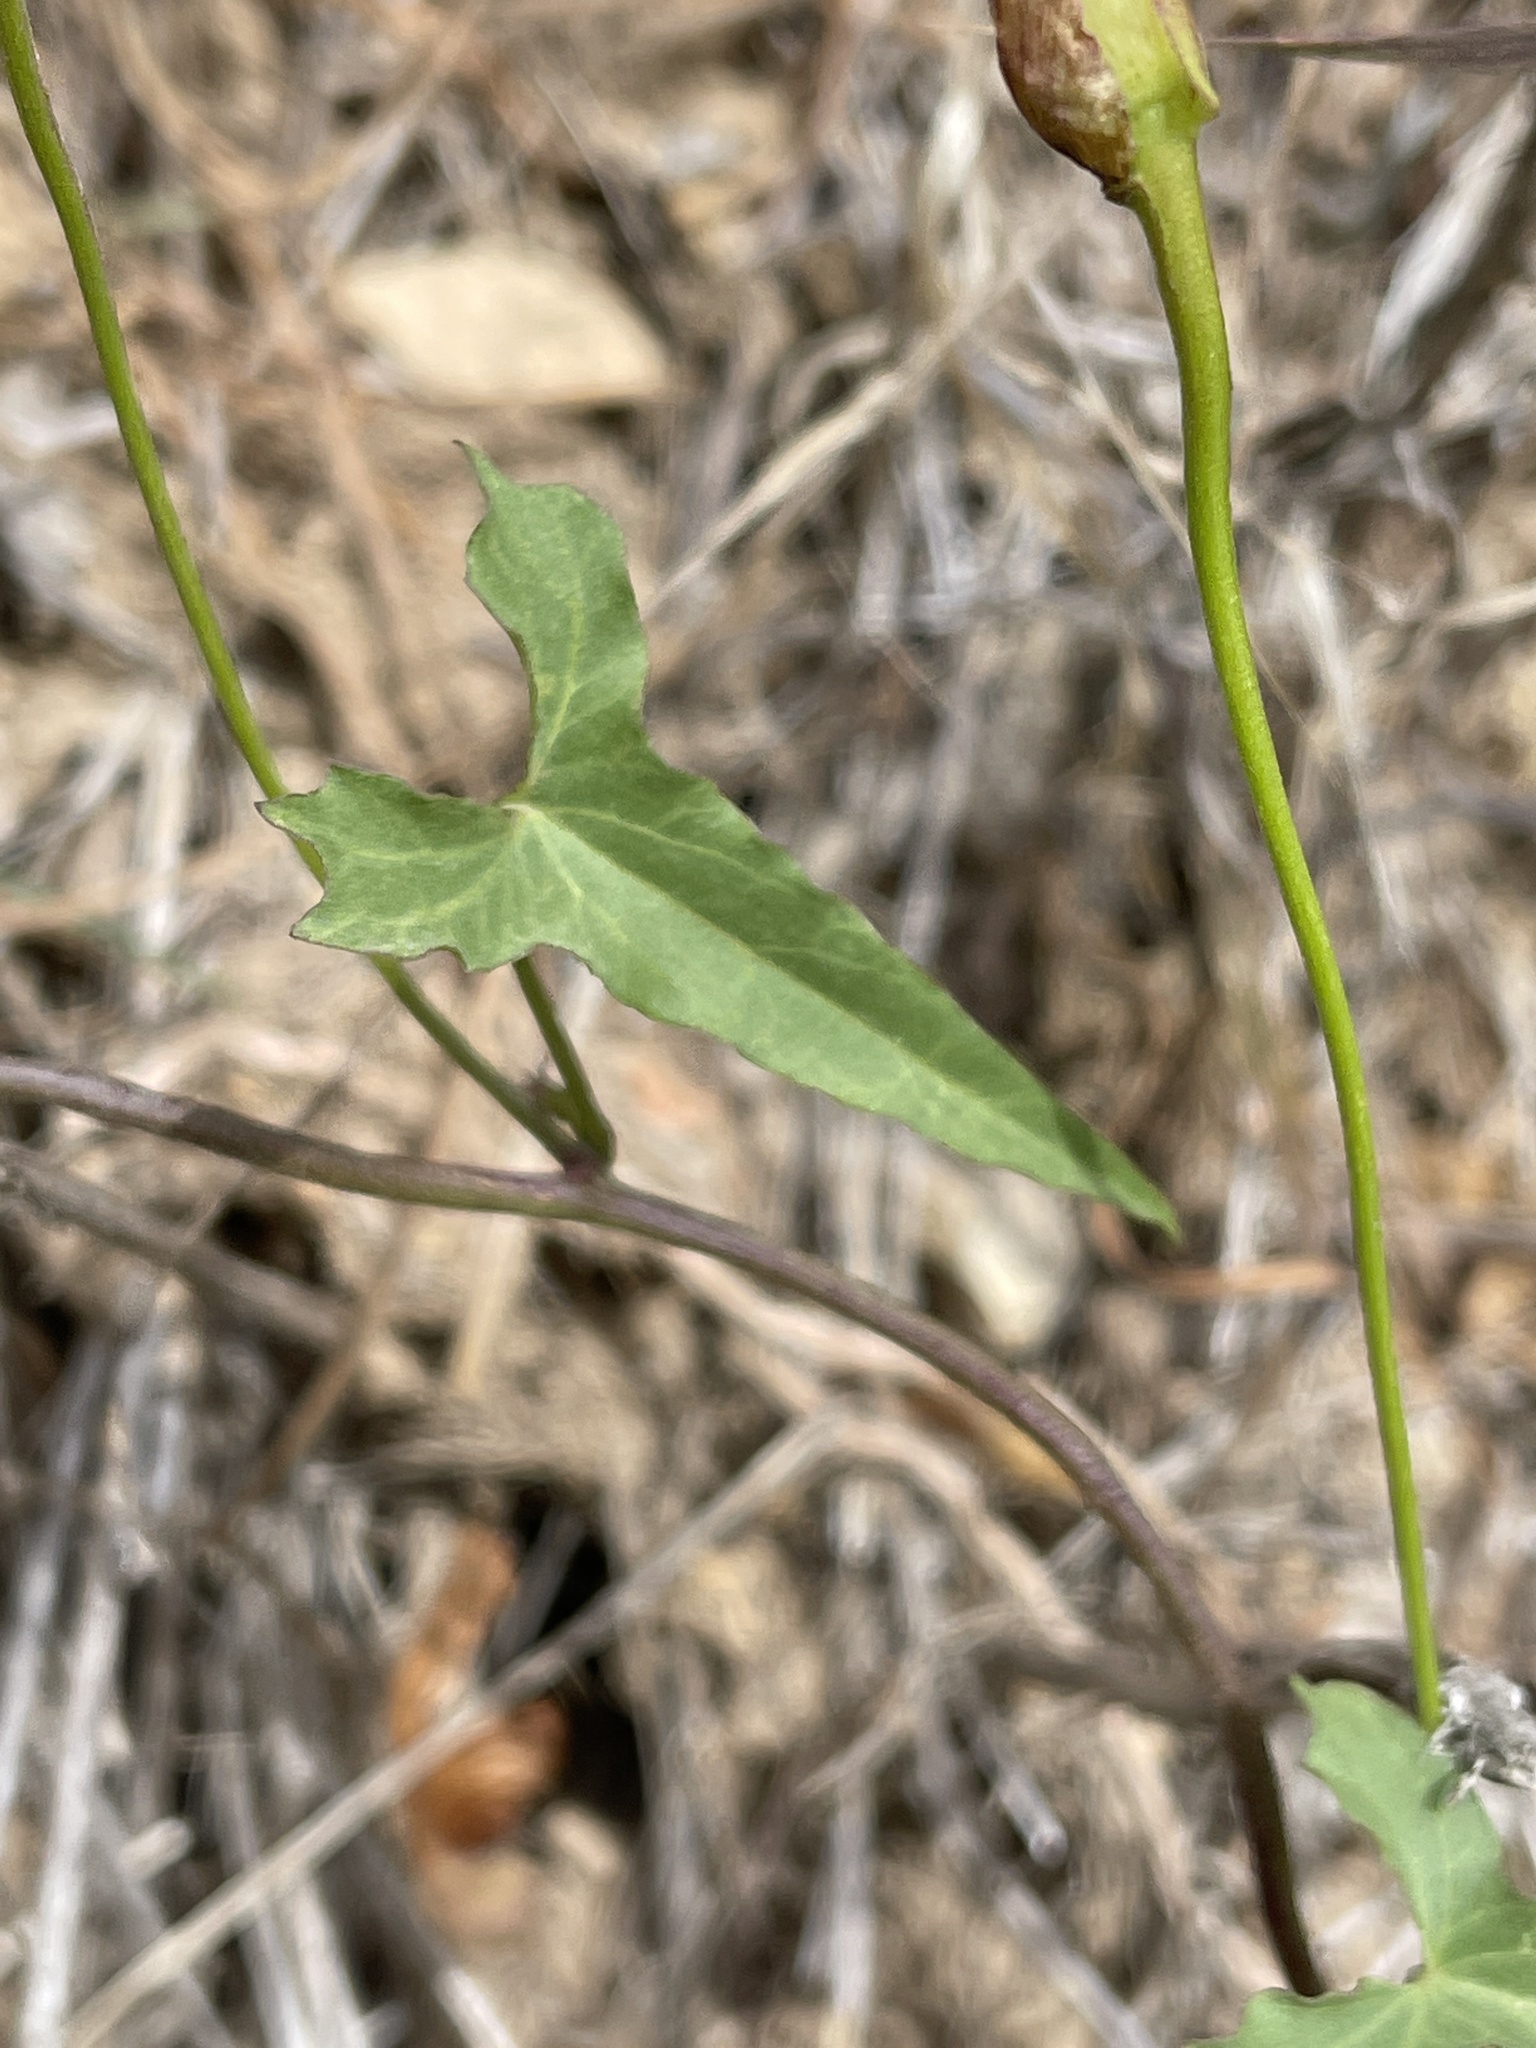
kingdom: Plantae
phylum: Tracheophyta
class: Magnoliopsida
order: Solanales
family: Convolvulaceae
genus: Calystegia
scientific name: Calystegia macrostegia
